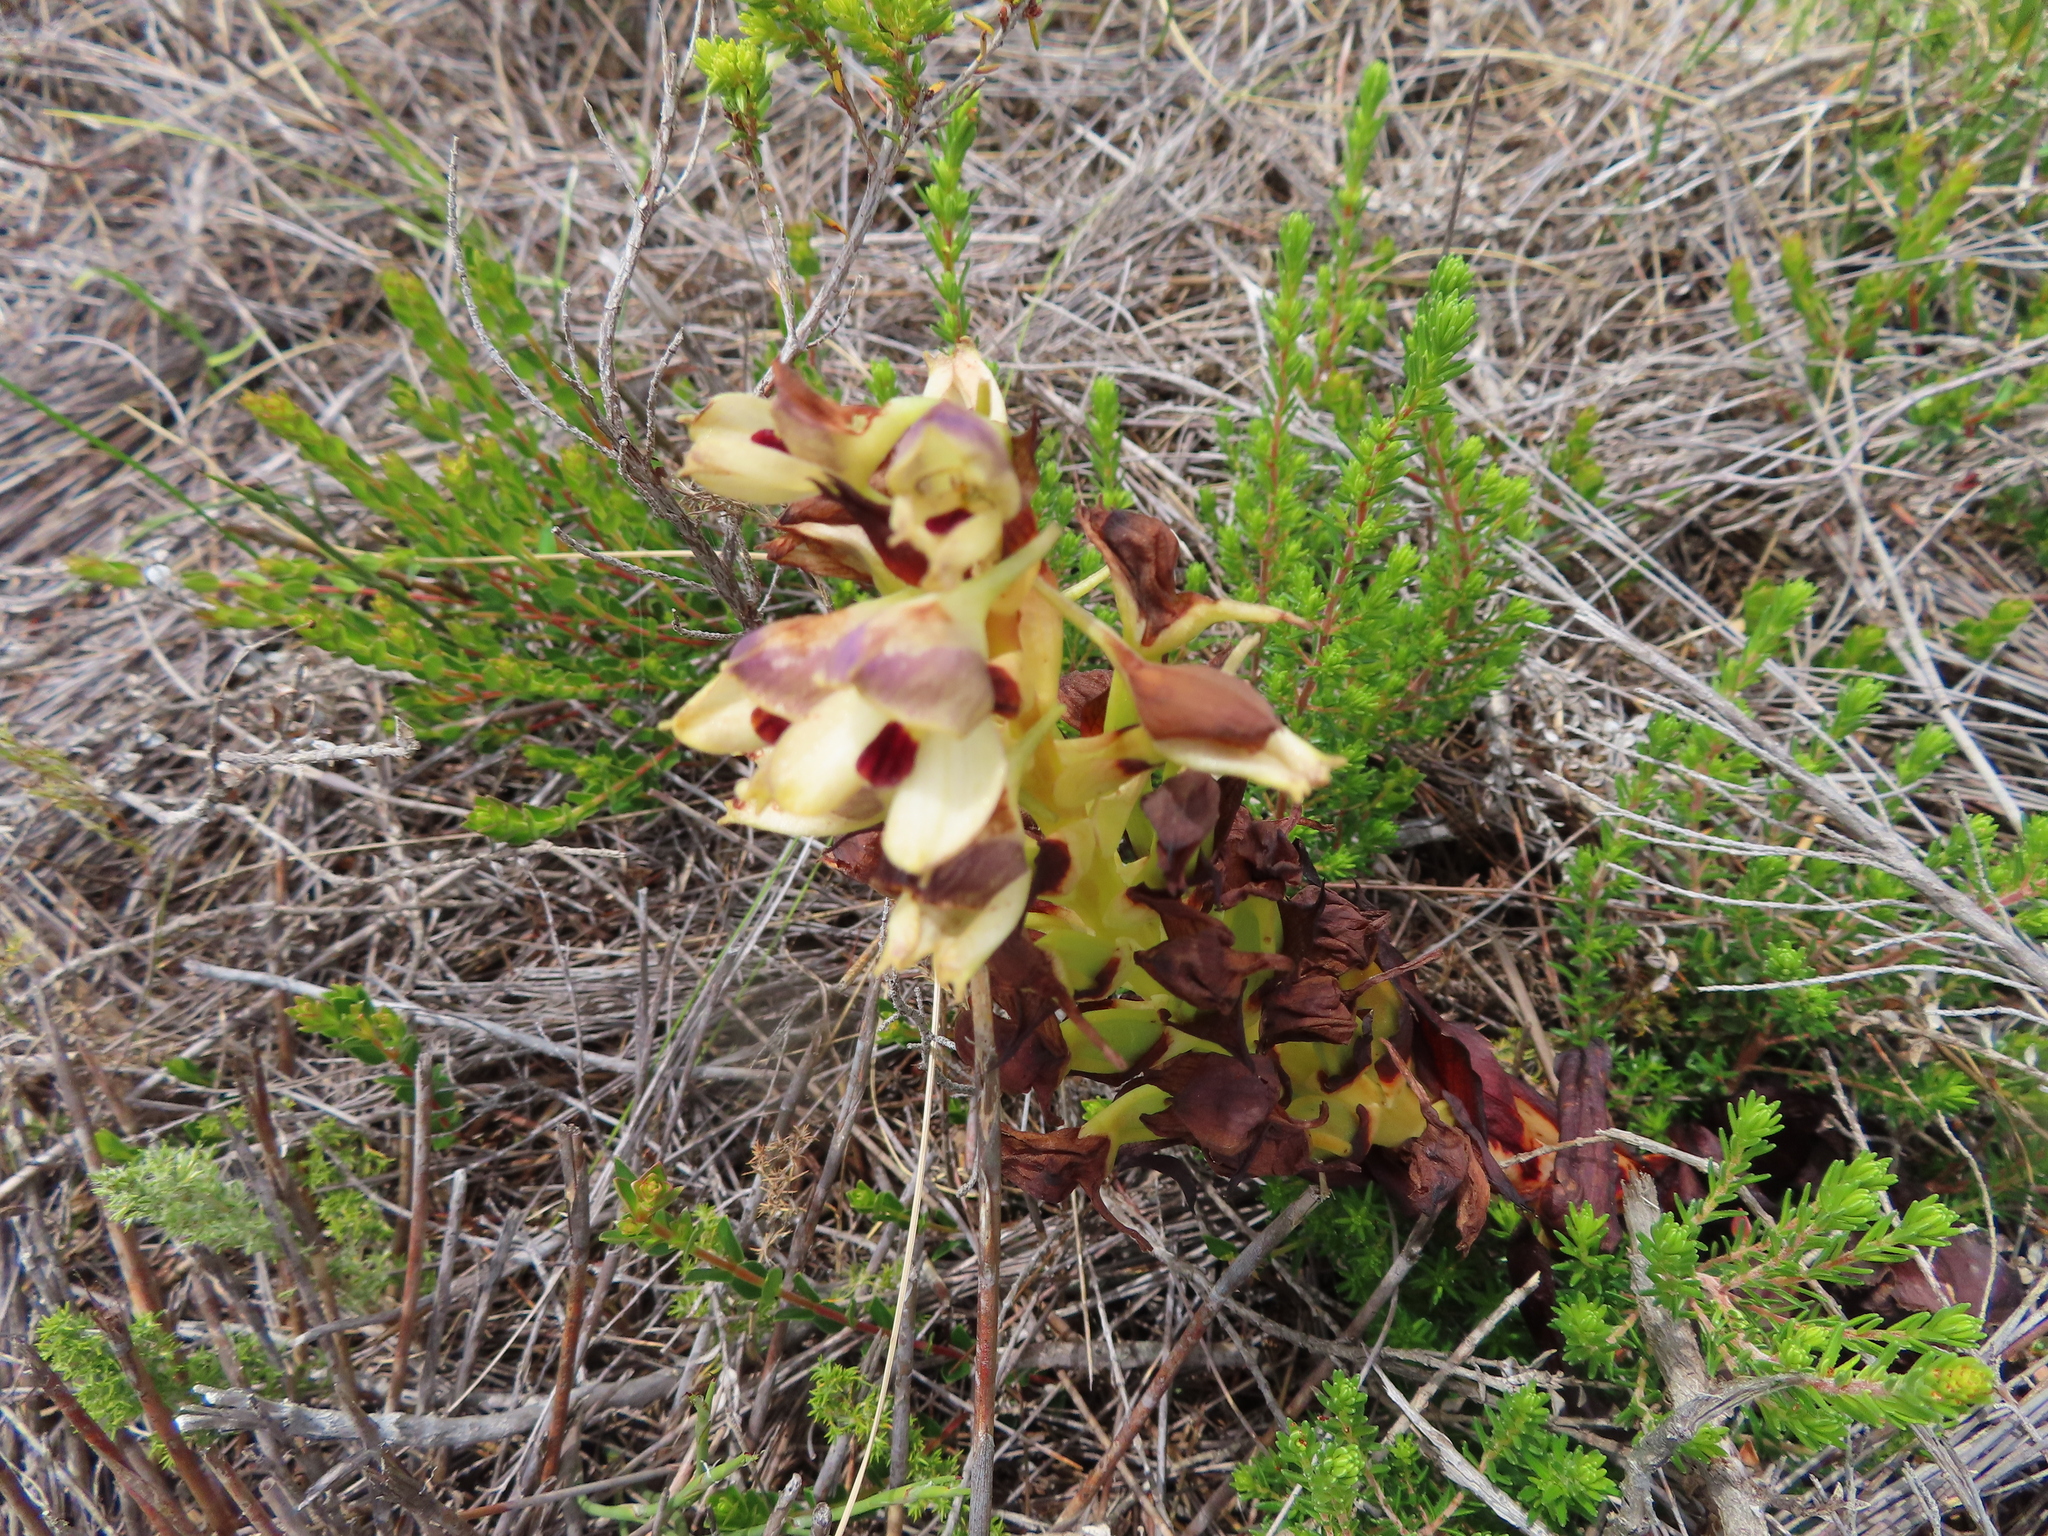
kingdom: Plantae
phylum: Tracheophyta
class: Liliopsida
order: Asparagales
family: Orchidaceae
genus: Disa
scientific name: Disa cornuta
